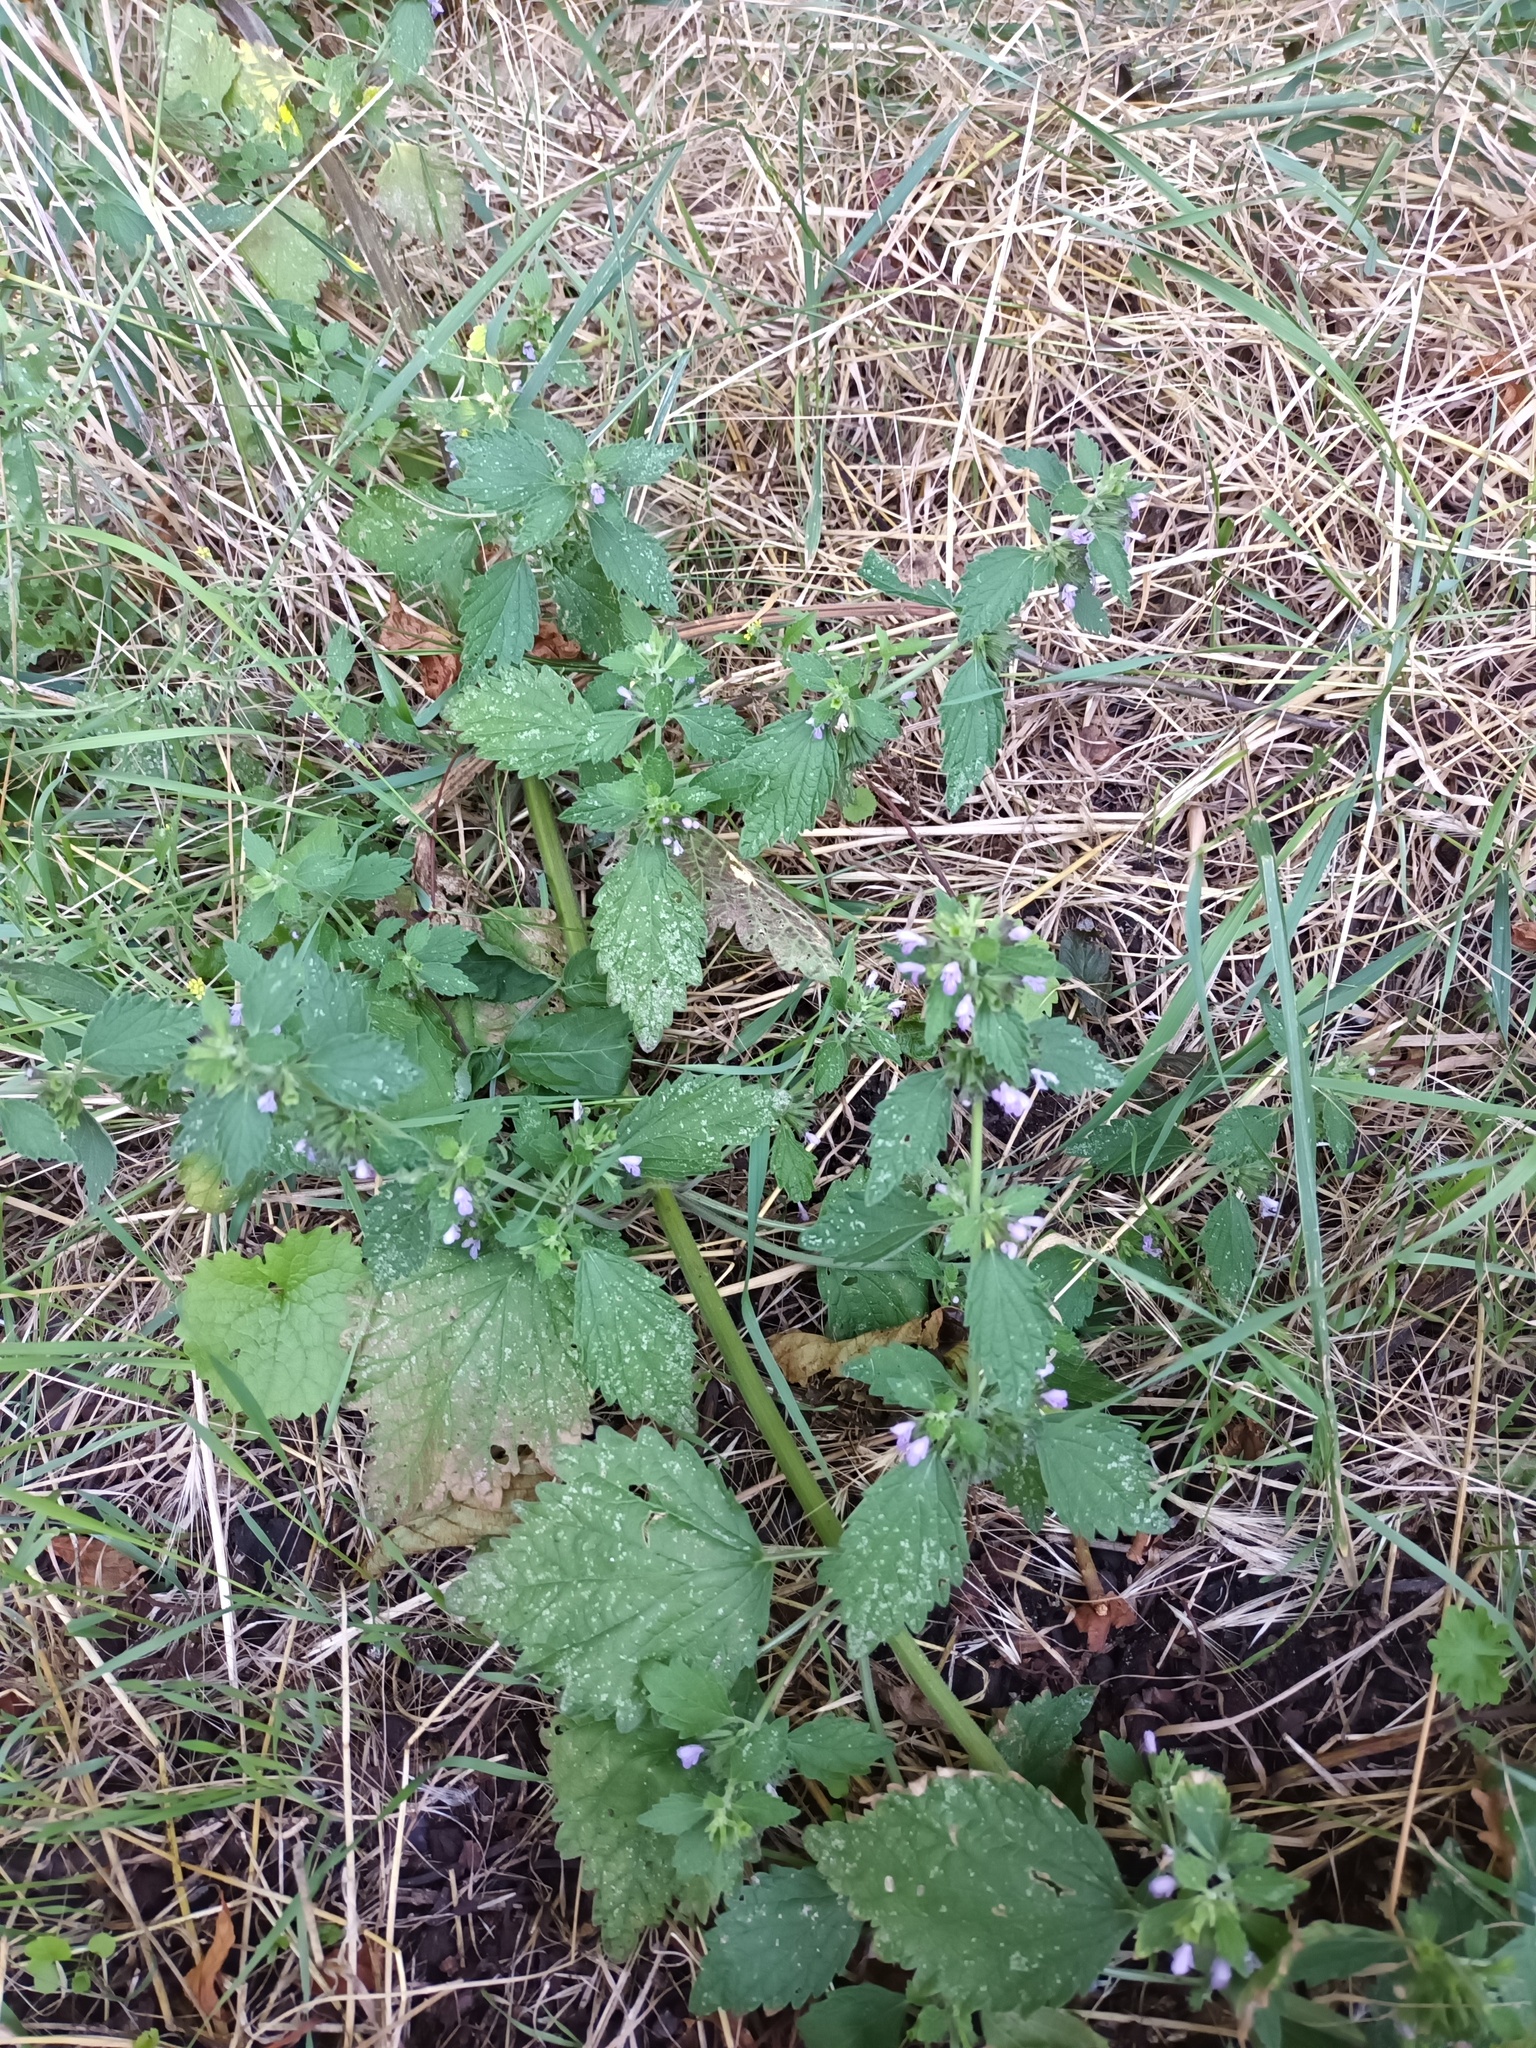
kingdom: Plantae
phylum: Tracheophyta
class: Magnoliopsida
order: Lamiales
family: Lamiaceae
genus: Ballota
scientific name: Ballota nigra
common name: Black horehound
